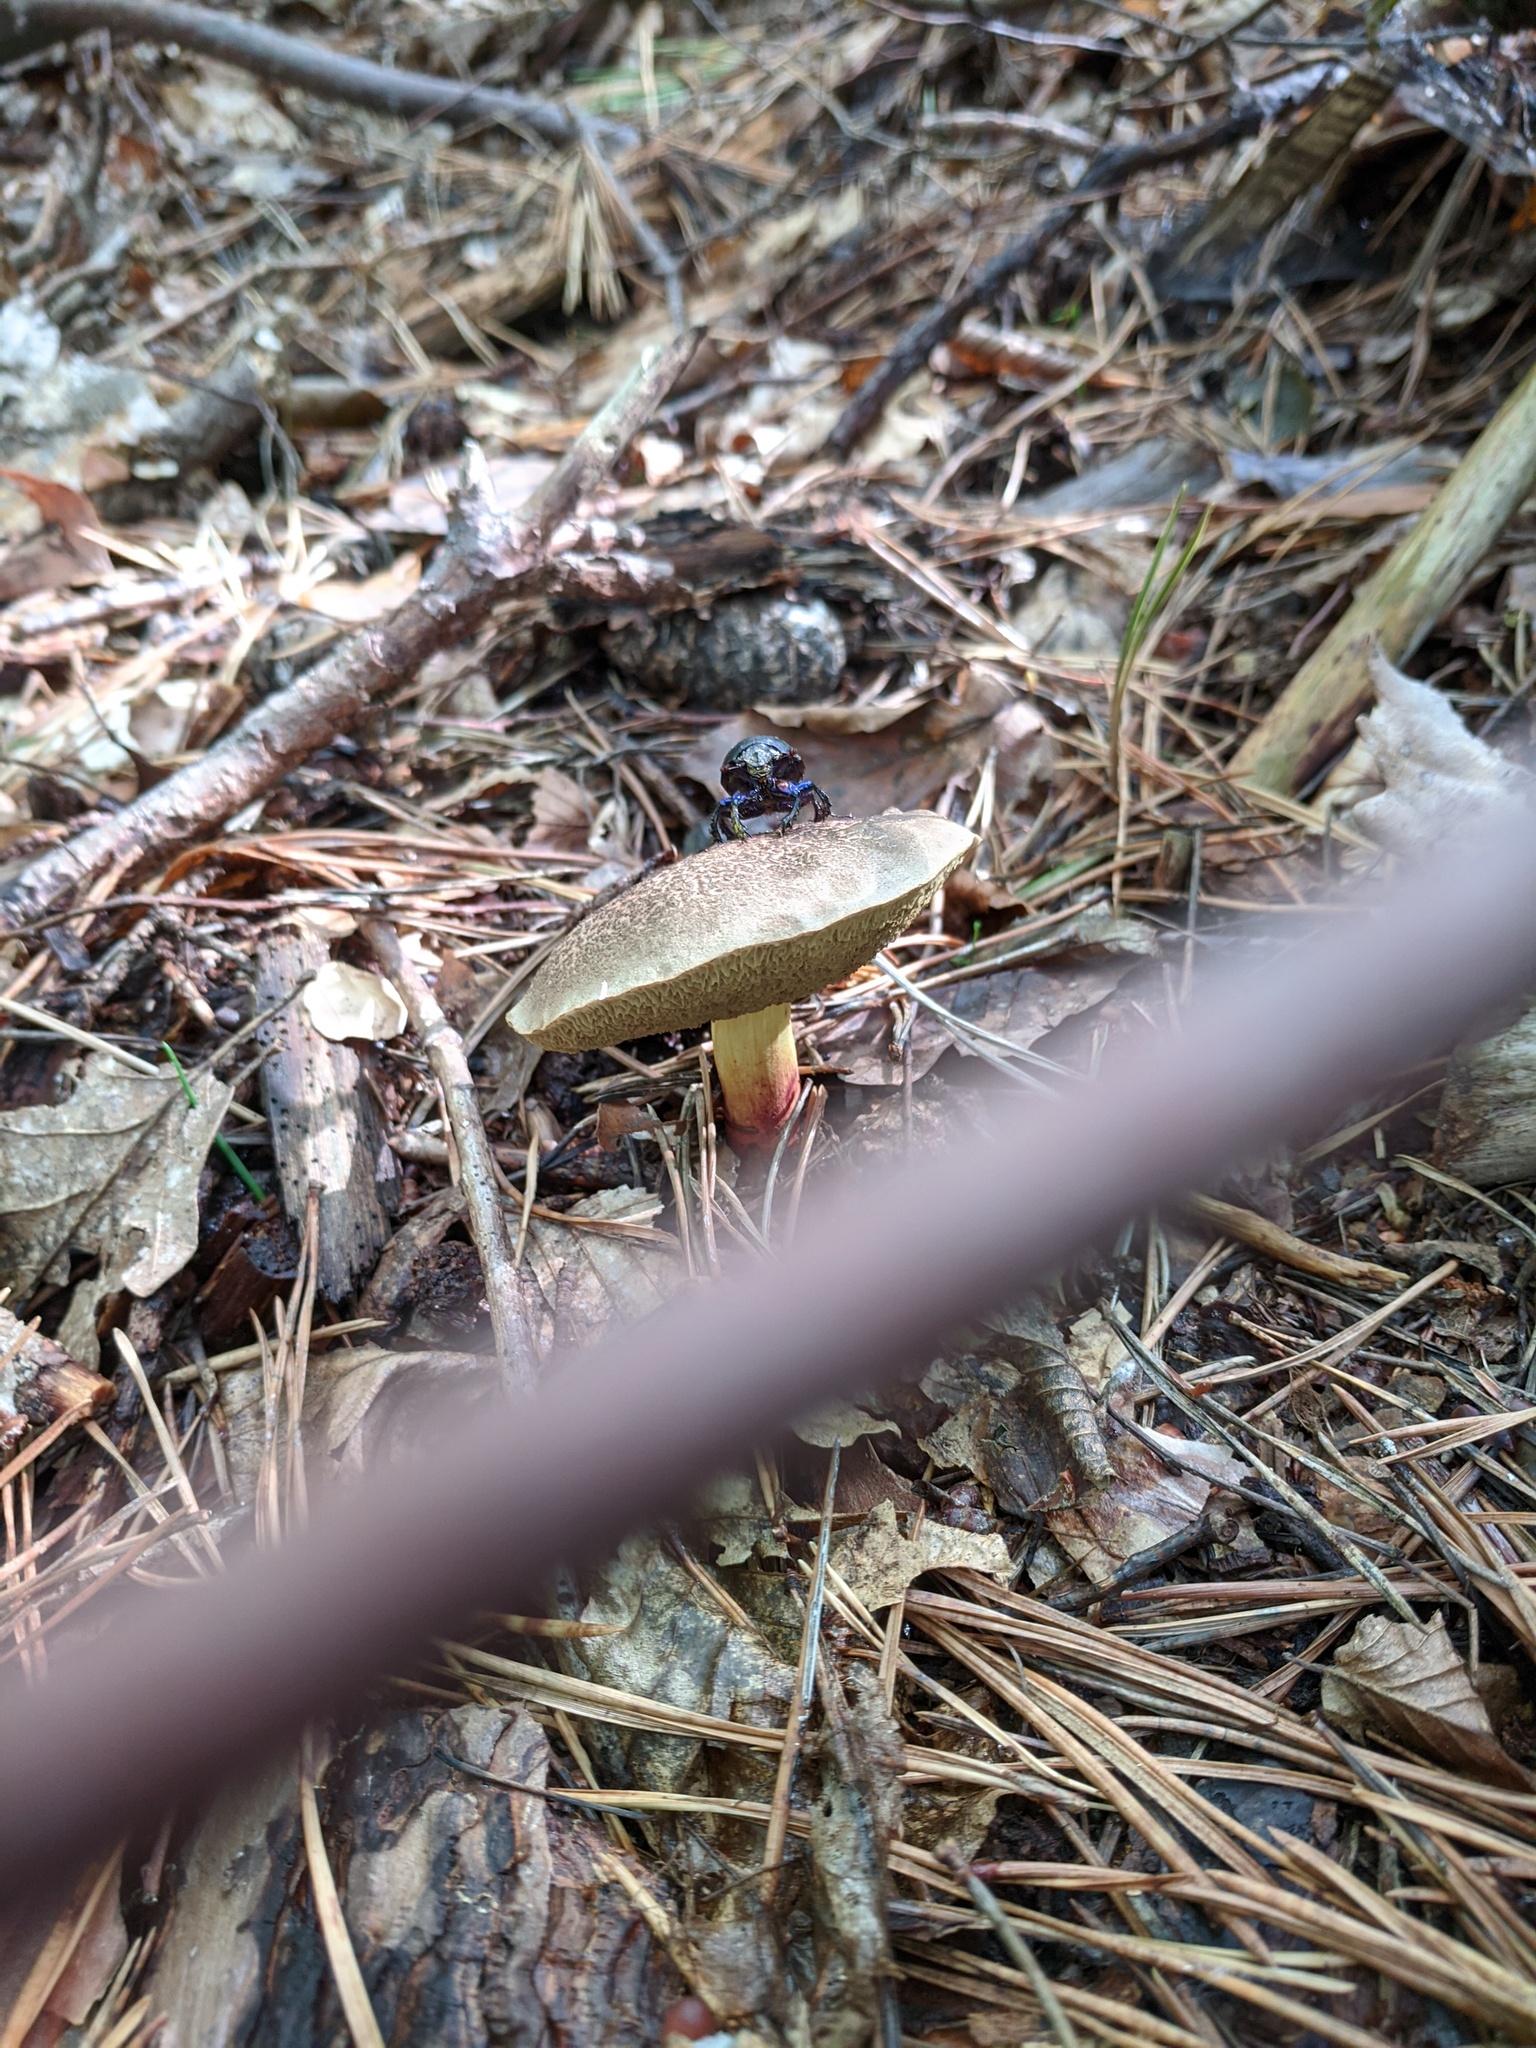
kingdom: Fungi
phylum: Basidiomycota
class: Agaricomycetes
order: Boletales
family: Boletaceae
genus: Xerocomellus
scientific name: Xerocomellus chrysenteron
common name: Red-cracking bolete
